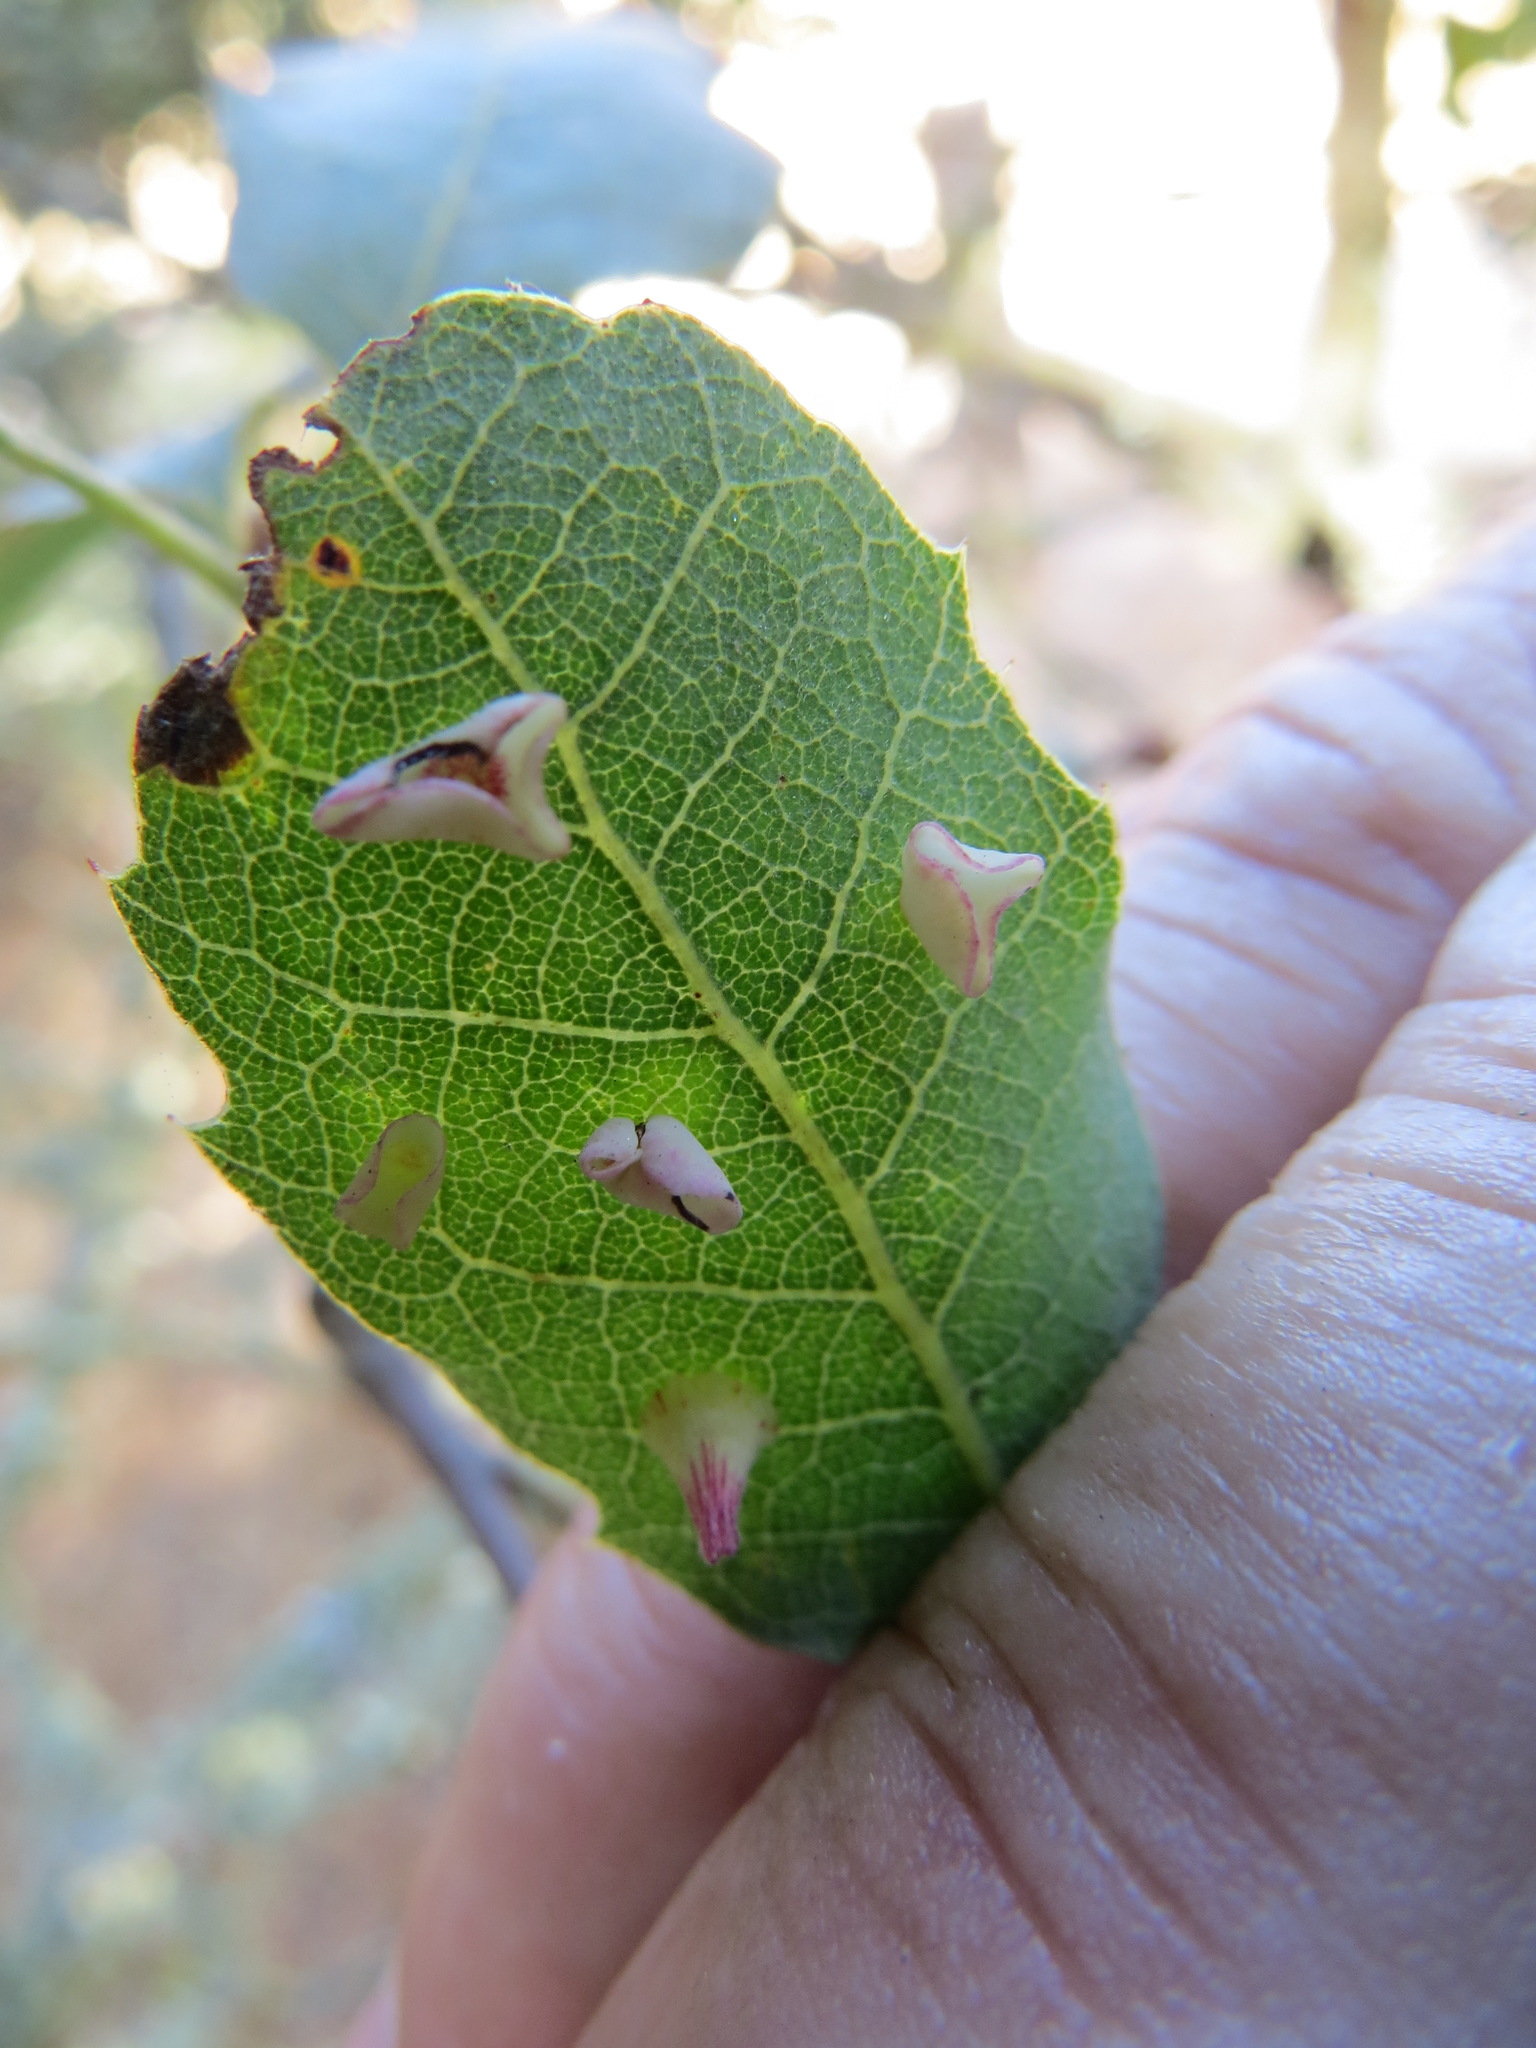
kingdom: Animalia
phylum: Arthropoda
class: Insecta
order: Hymenoptera
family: Cynipidae
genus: Andricus
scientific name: Andricus
